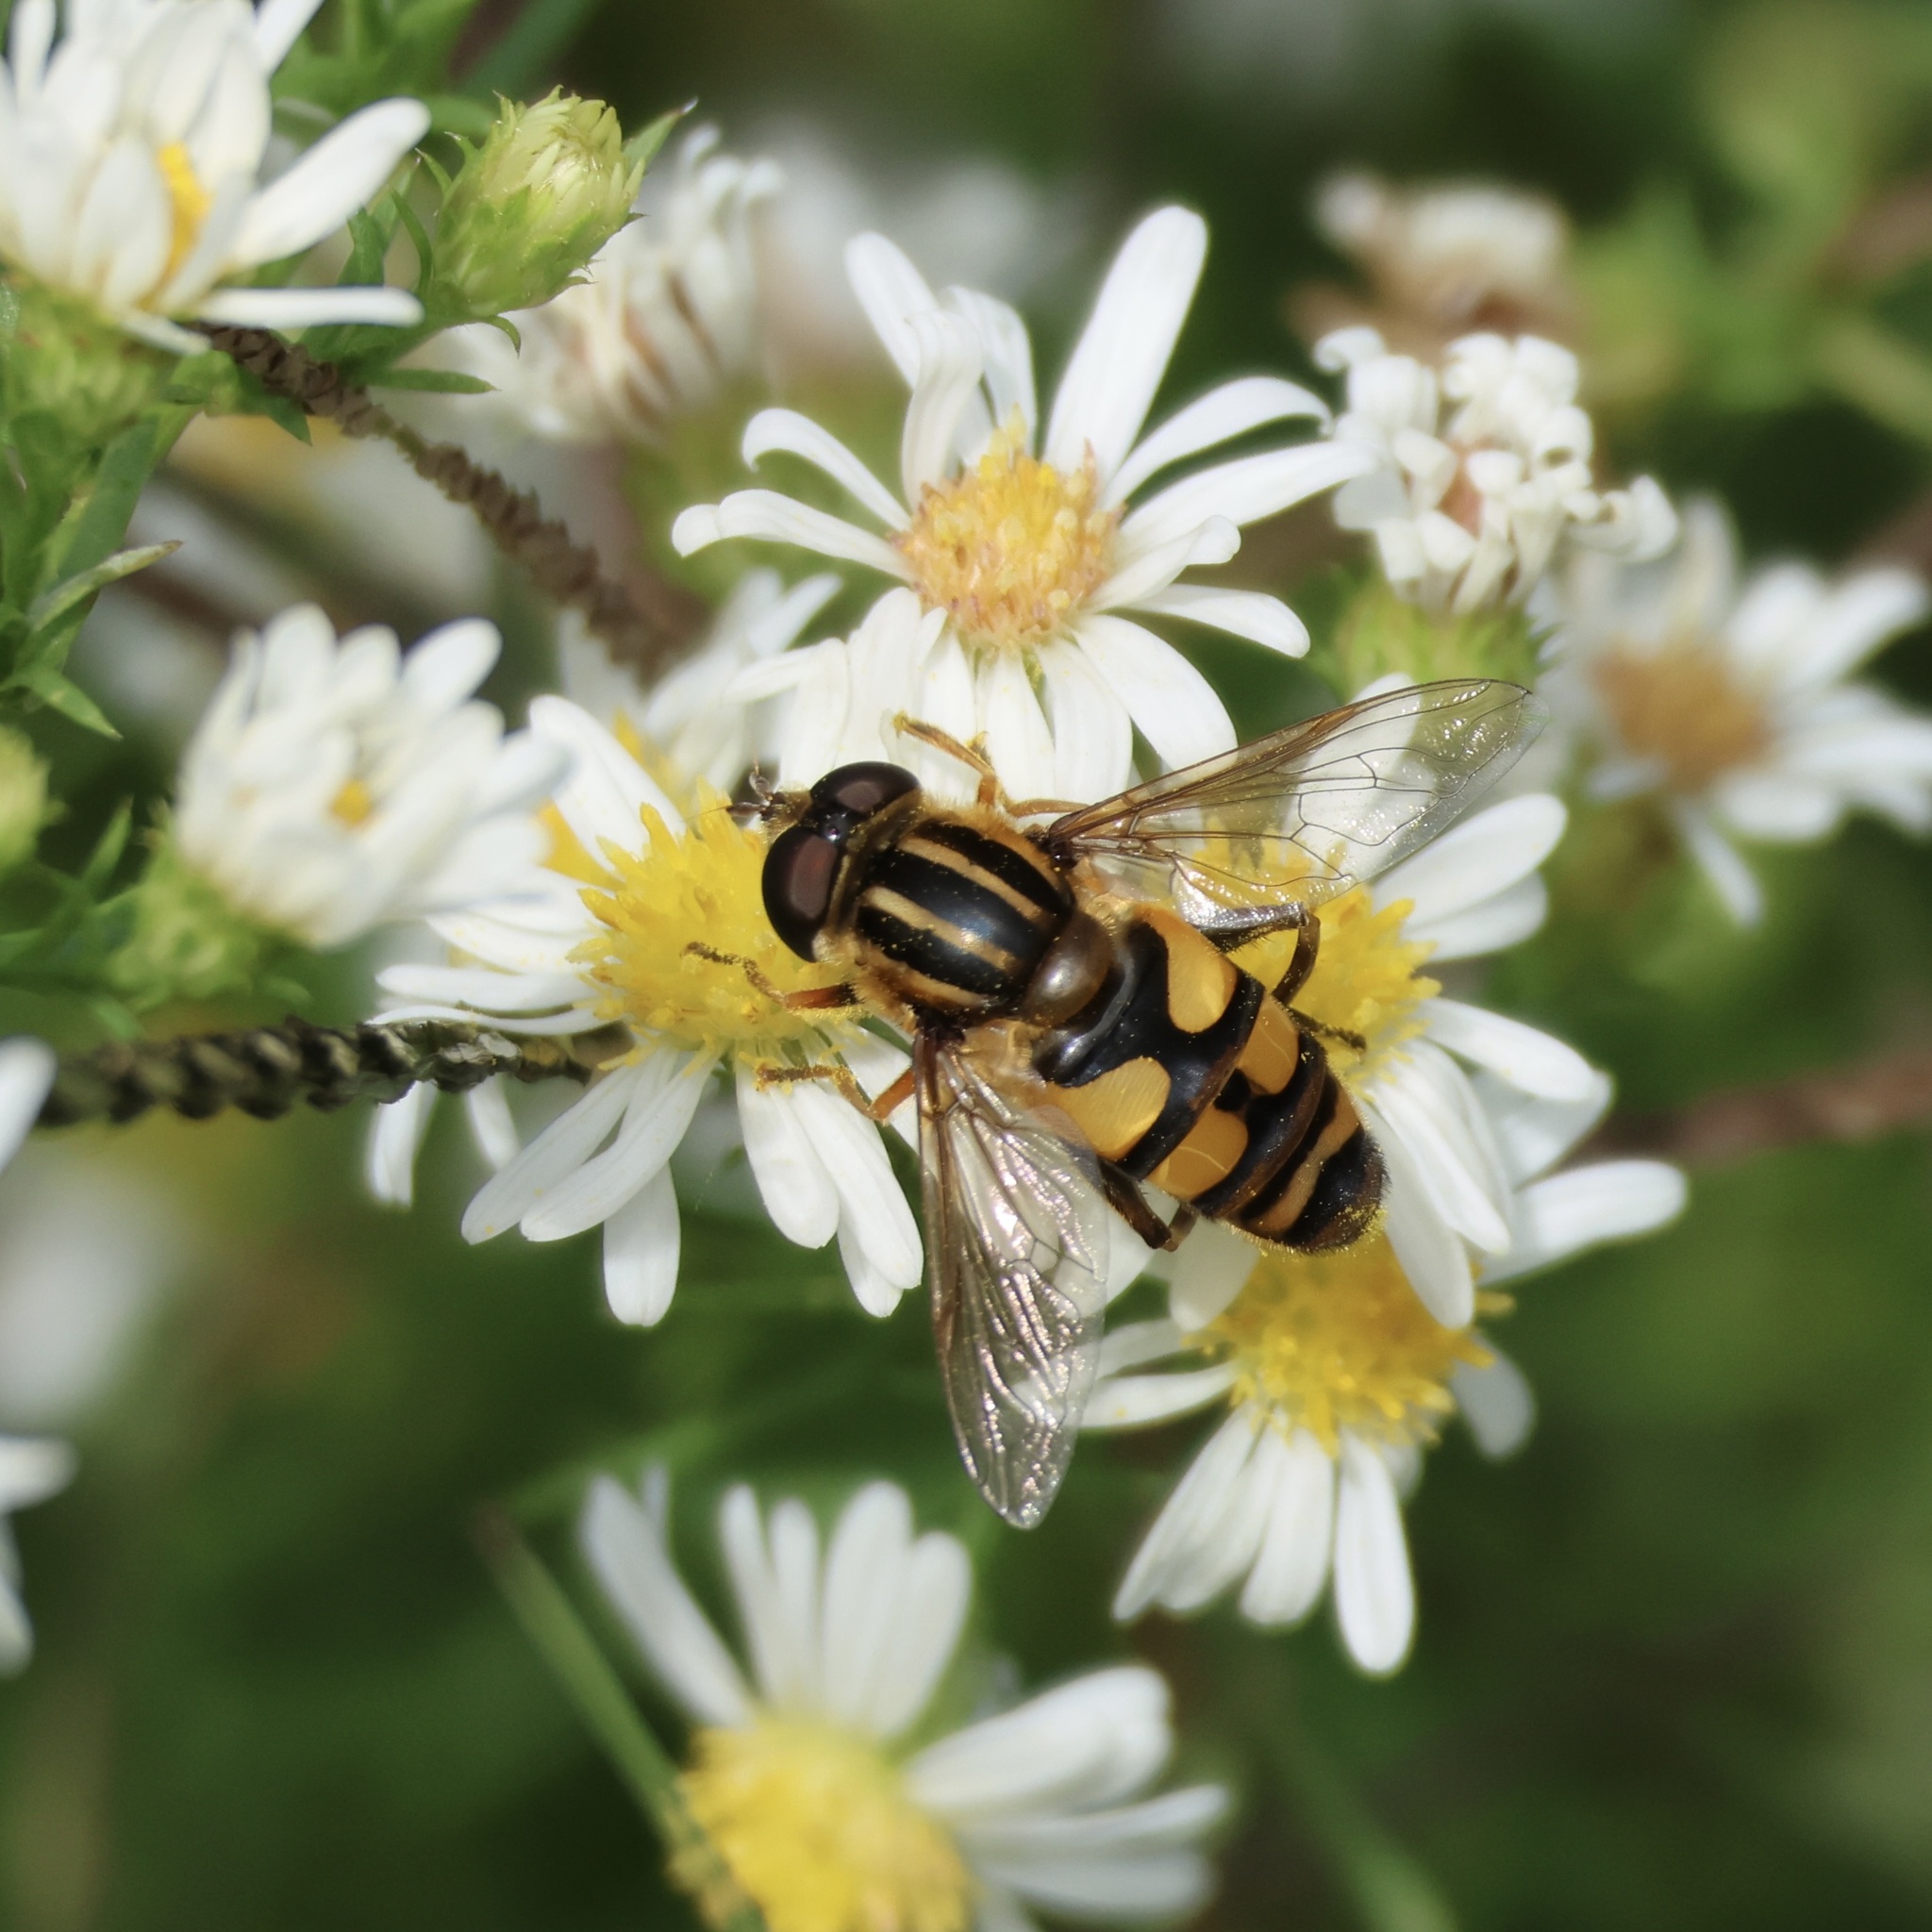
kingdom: Animalia
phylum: Arthropoda
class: Insecta
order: Diptera
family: Syrphidae
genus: Helophilus
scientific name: Helophilus fasciatus
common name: Narrow-headed marsh fly
